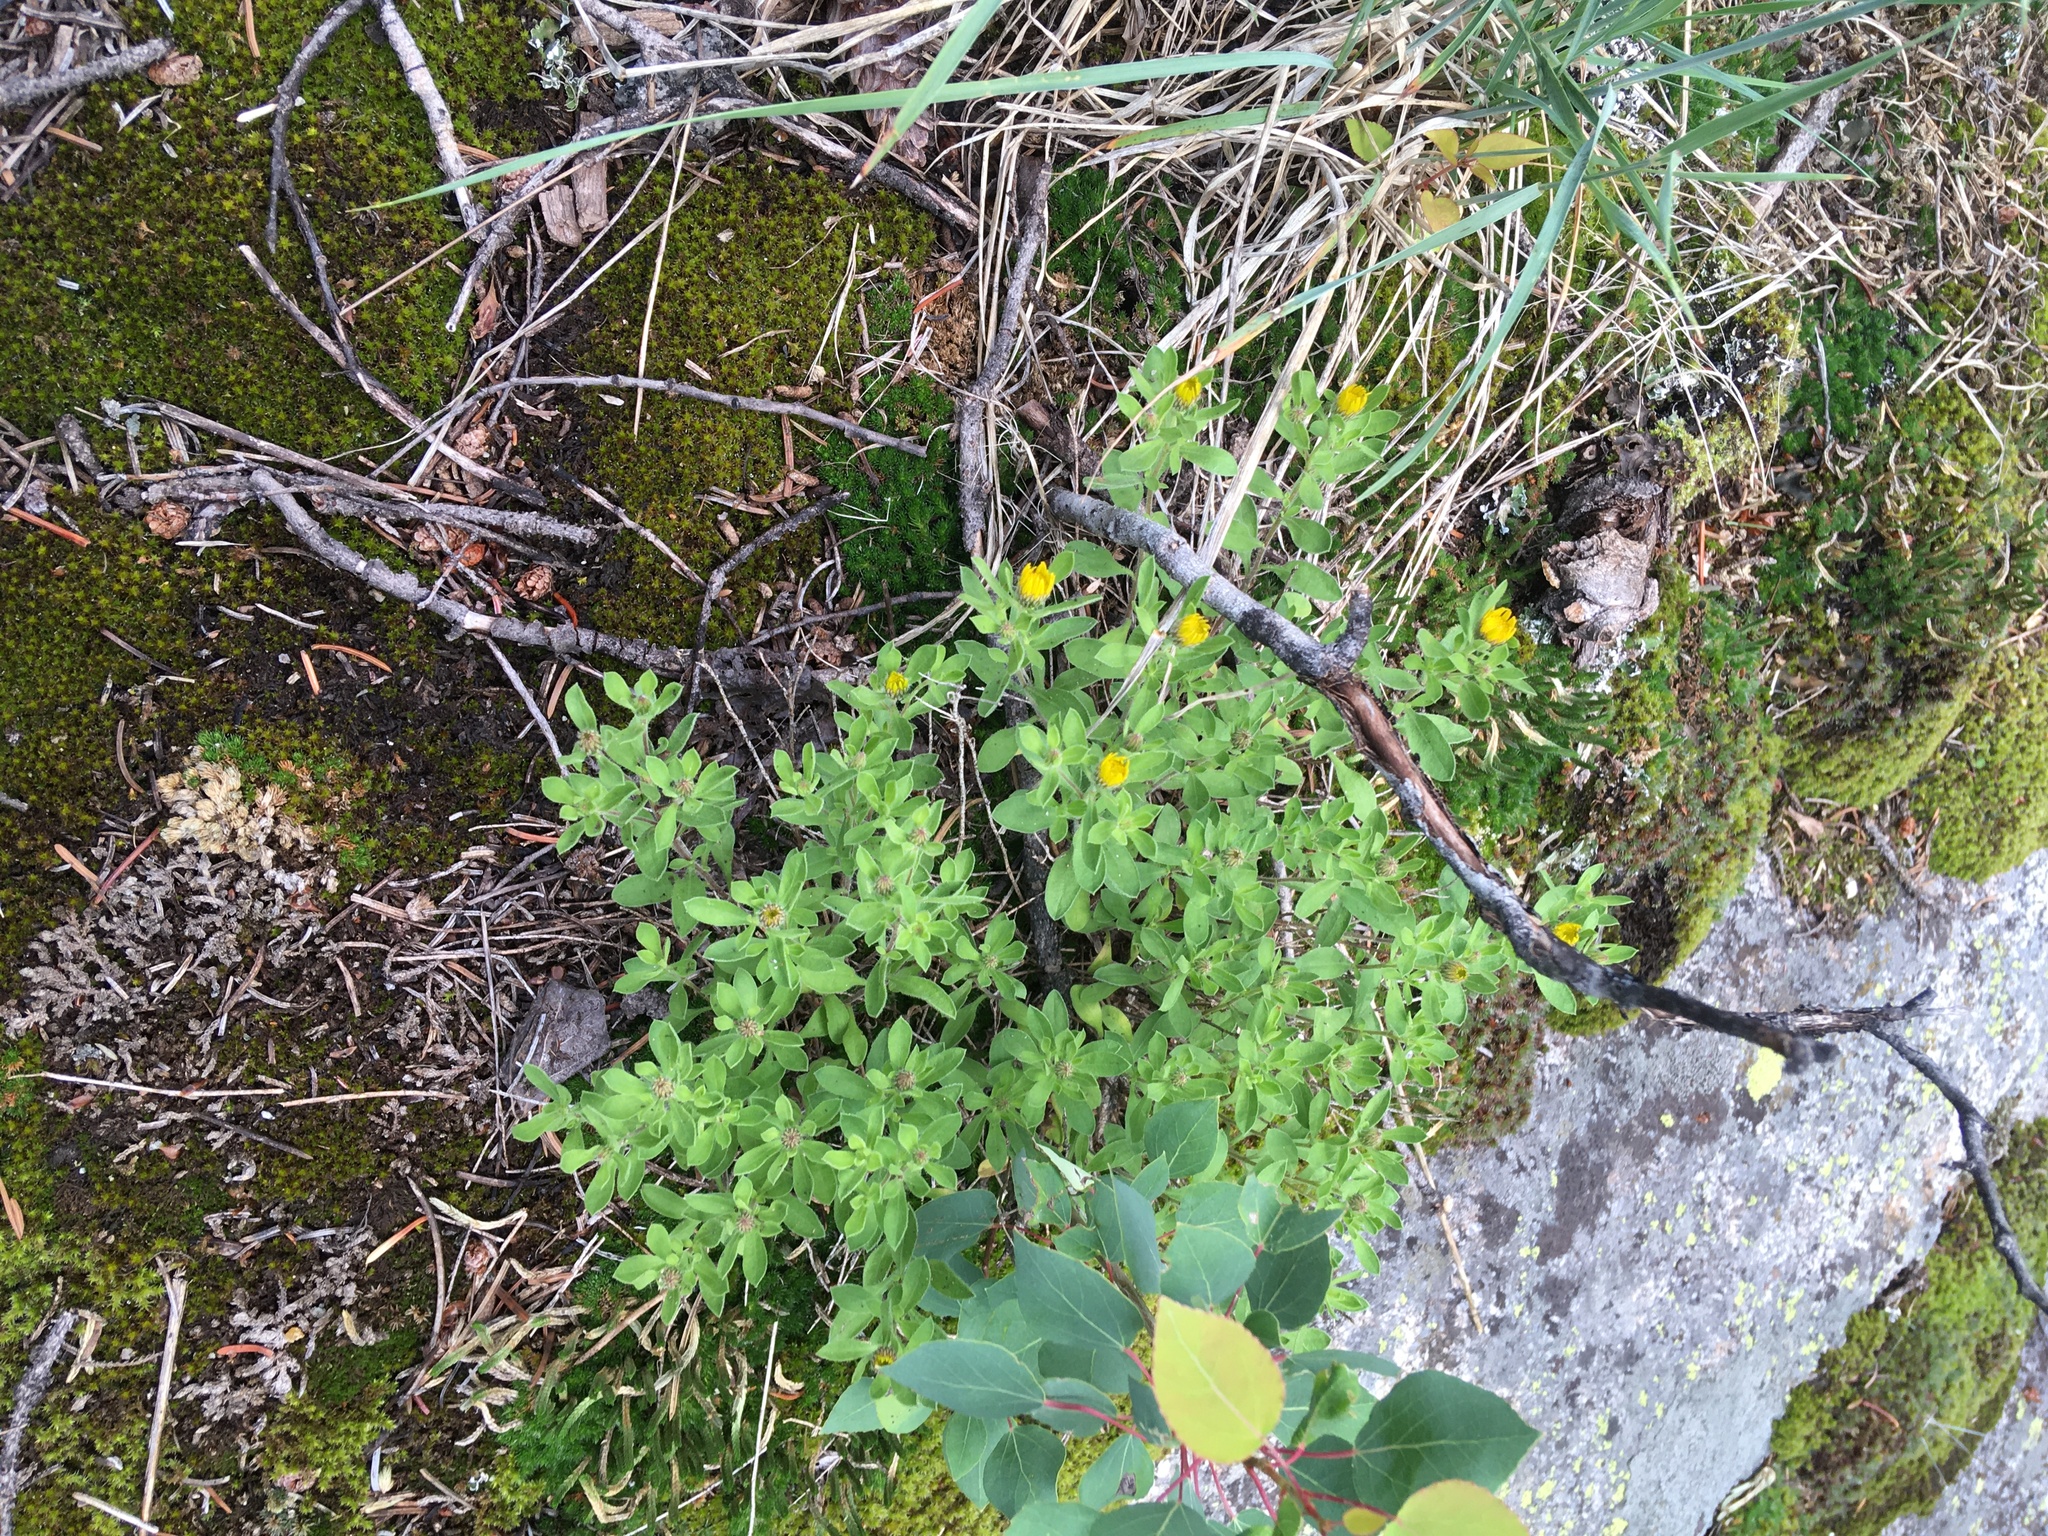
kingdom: Plantae
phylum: Tracheophyta
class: Magnoliopsida
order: Asterales
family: Asteraceae
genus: Heterotheca
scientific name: Heterotheca villosa
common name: Hairy false goldenaster
